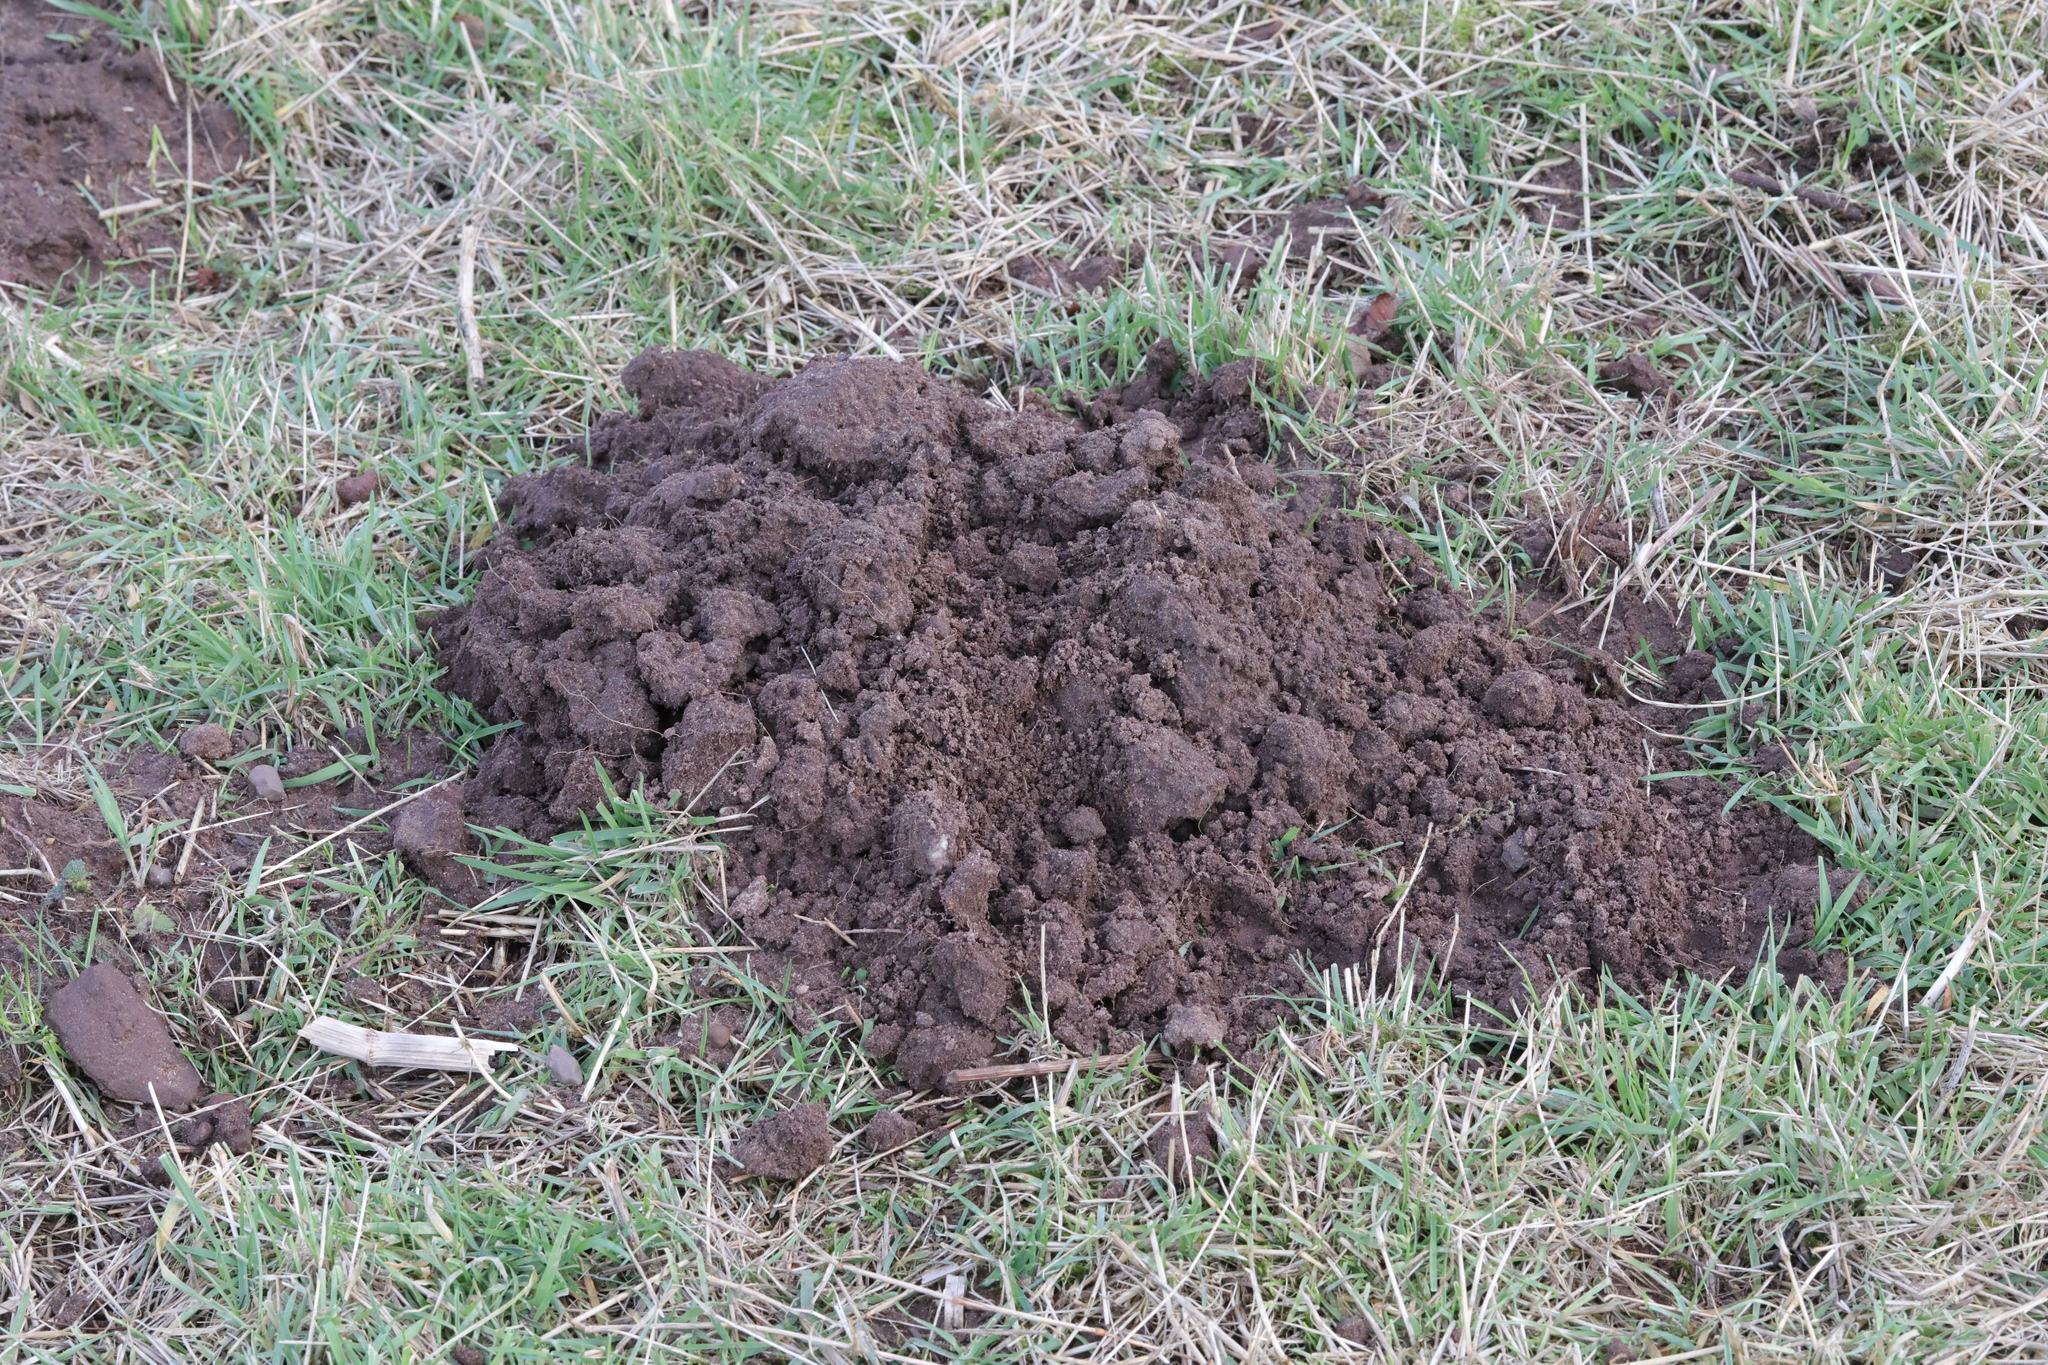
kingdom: Animalia
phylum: Chordata
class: Mammalia
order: Soricomorpha
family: Talpidae
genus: Talpa
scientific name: Talpa europaea
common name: European mole
